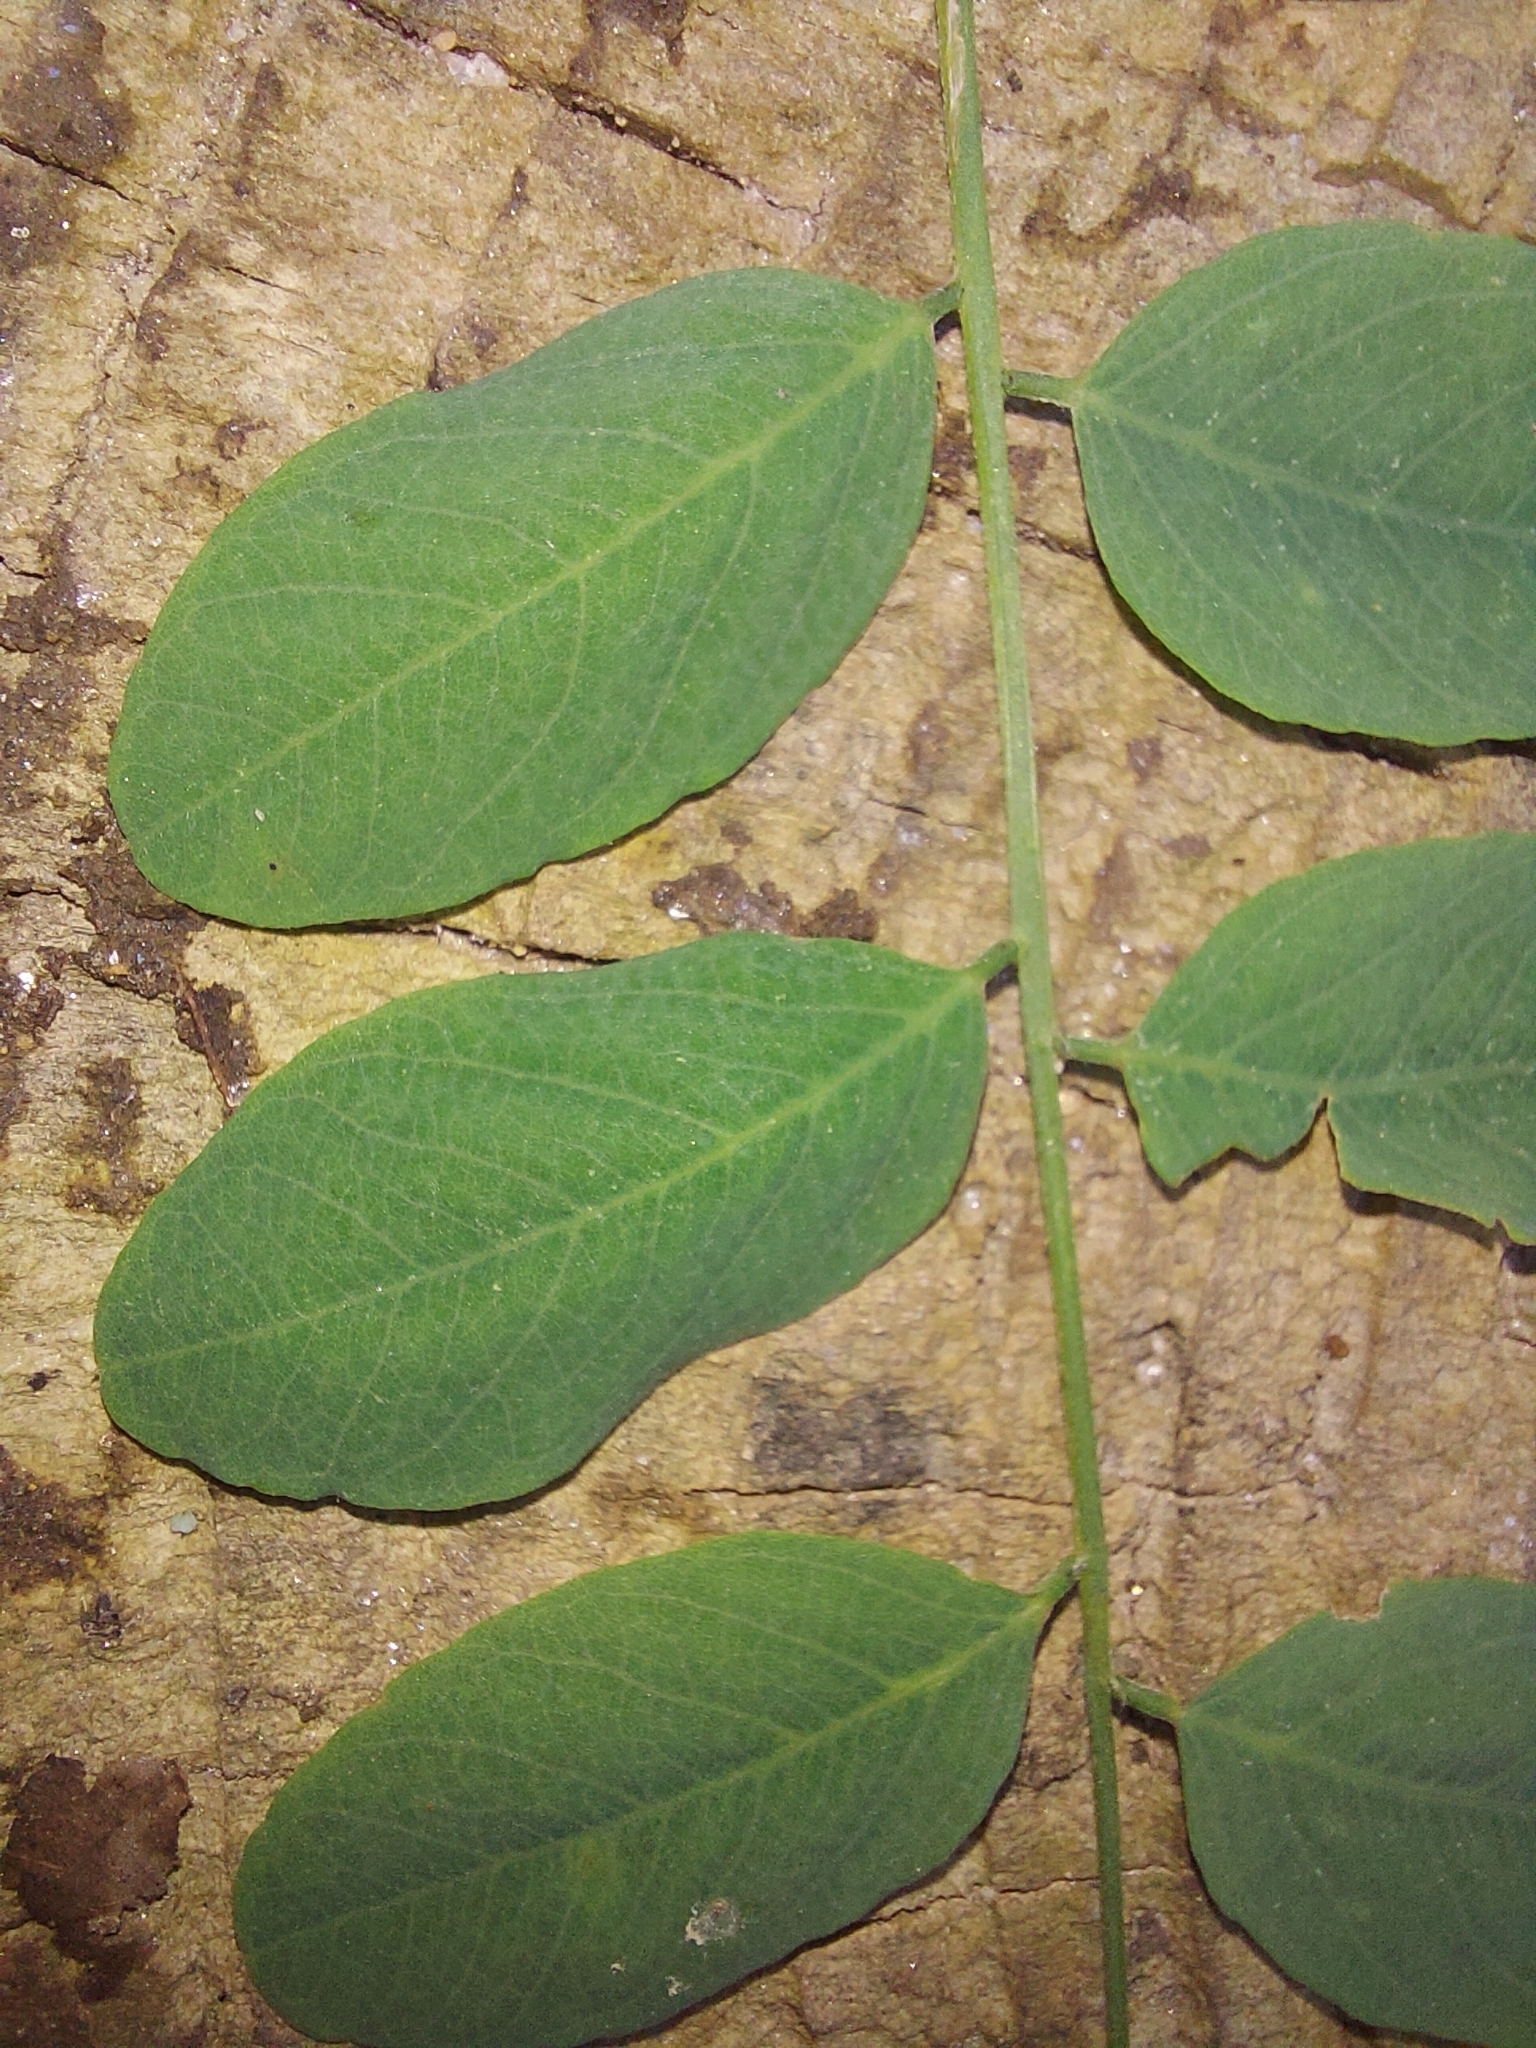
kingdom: Plantae
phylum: Tracheophyta
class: Magnoliopsida
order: Fabales
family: Fabaceae
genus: Robinia
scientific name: Robinia pseudoacacia
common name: Black locust
